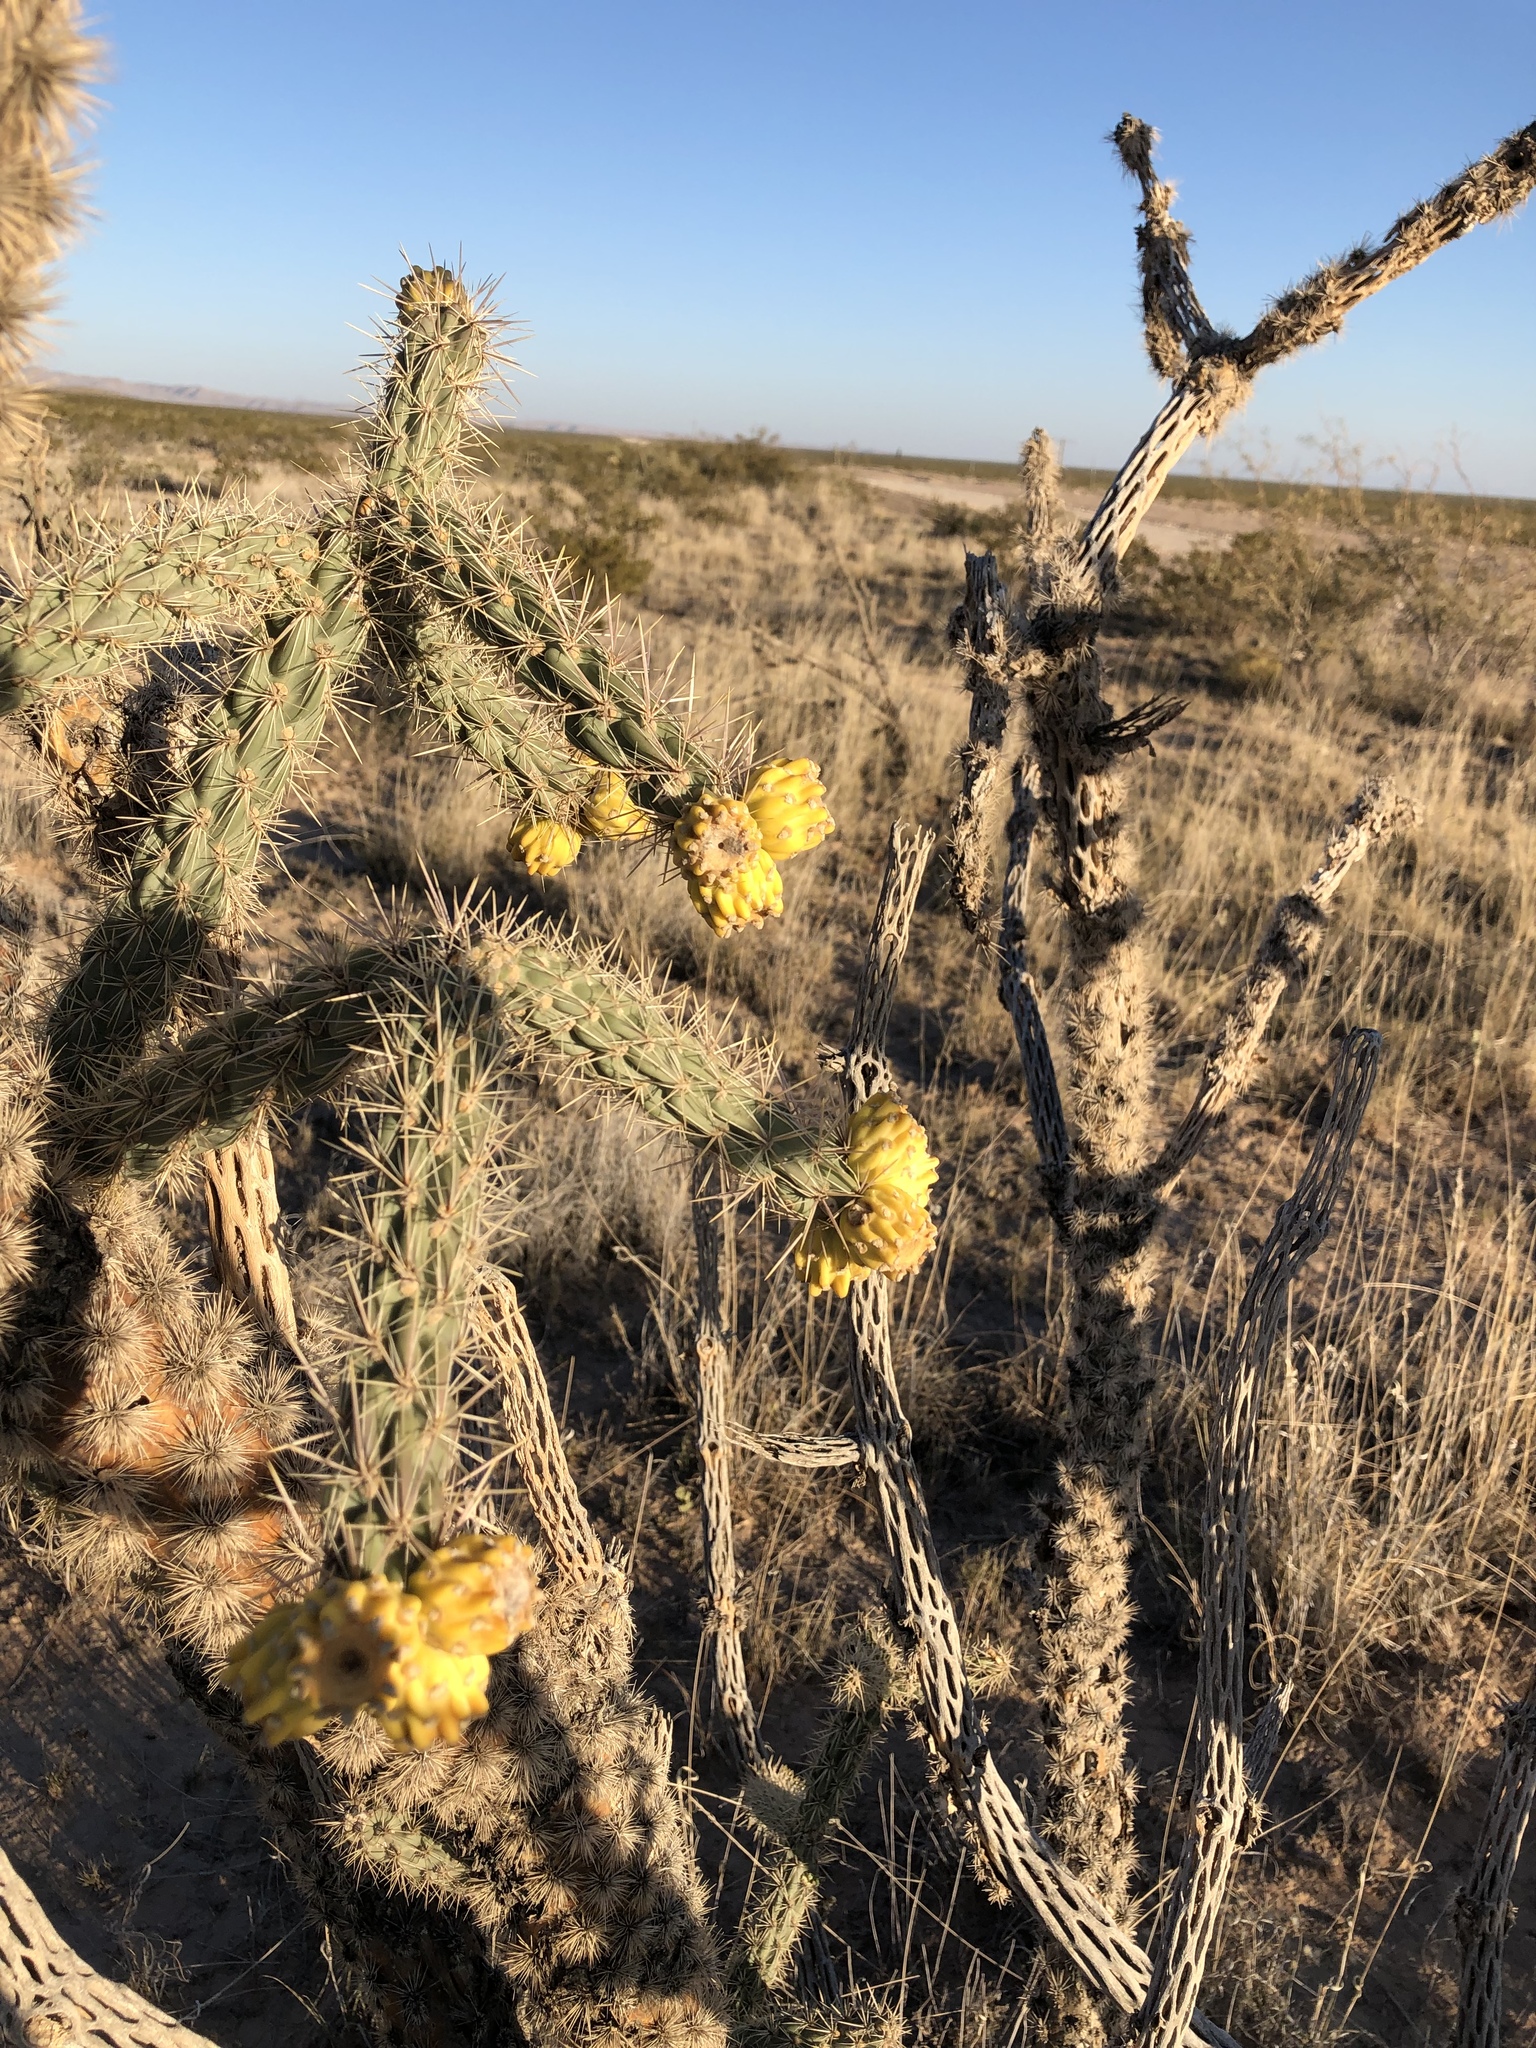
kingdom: Plantae
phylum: Tracheophyta
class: Magnoliopsida
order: Caryophyllales
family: Cactaceae
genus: Cylindropuntia
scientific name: Cylindropuntia imbricata
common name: Candelabrum cactus
